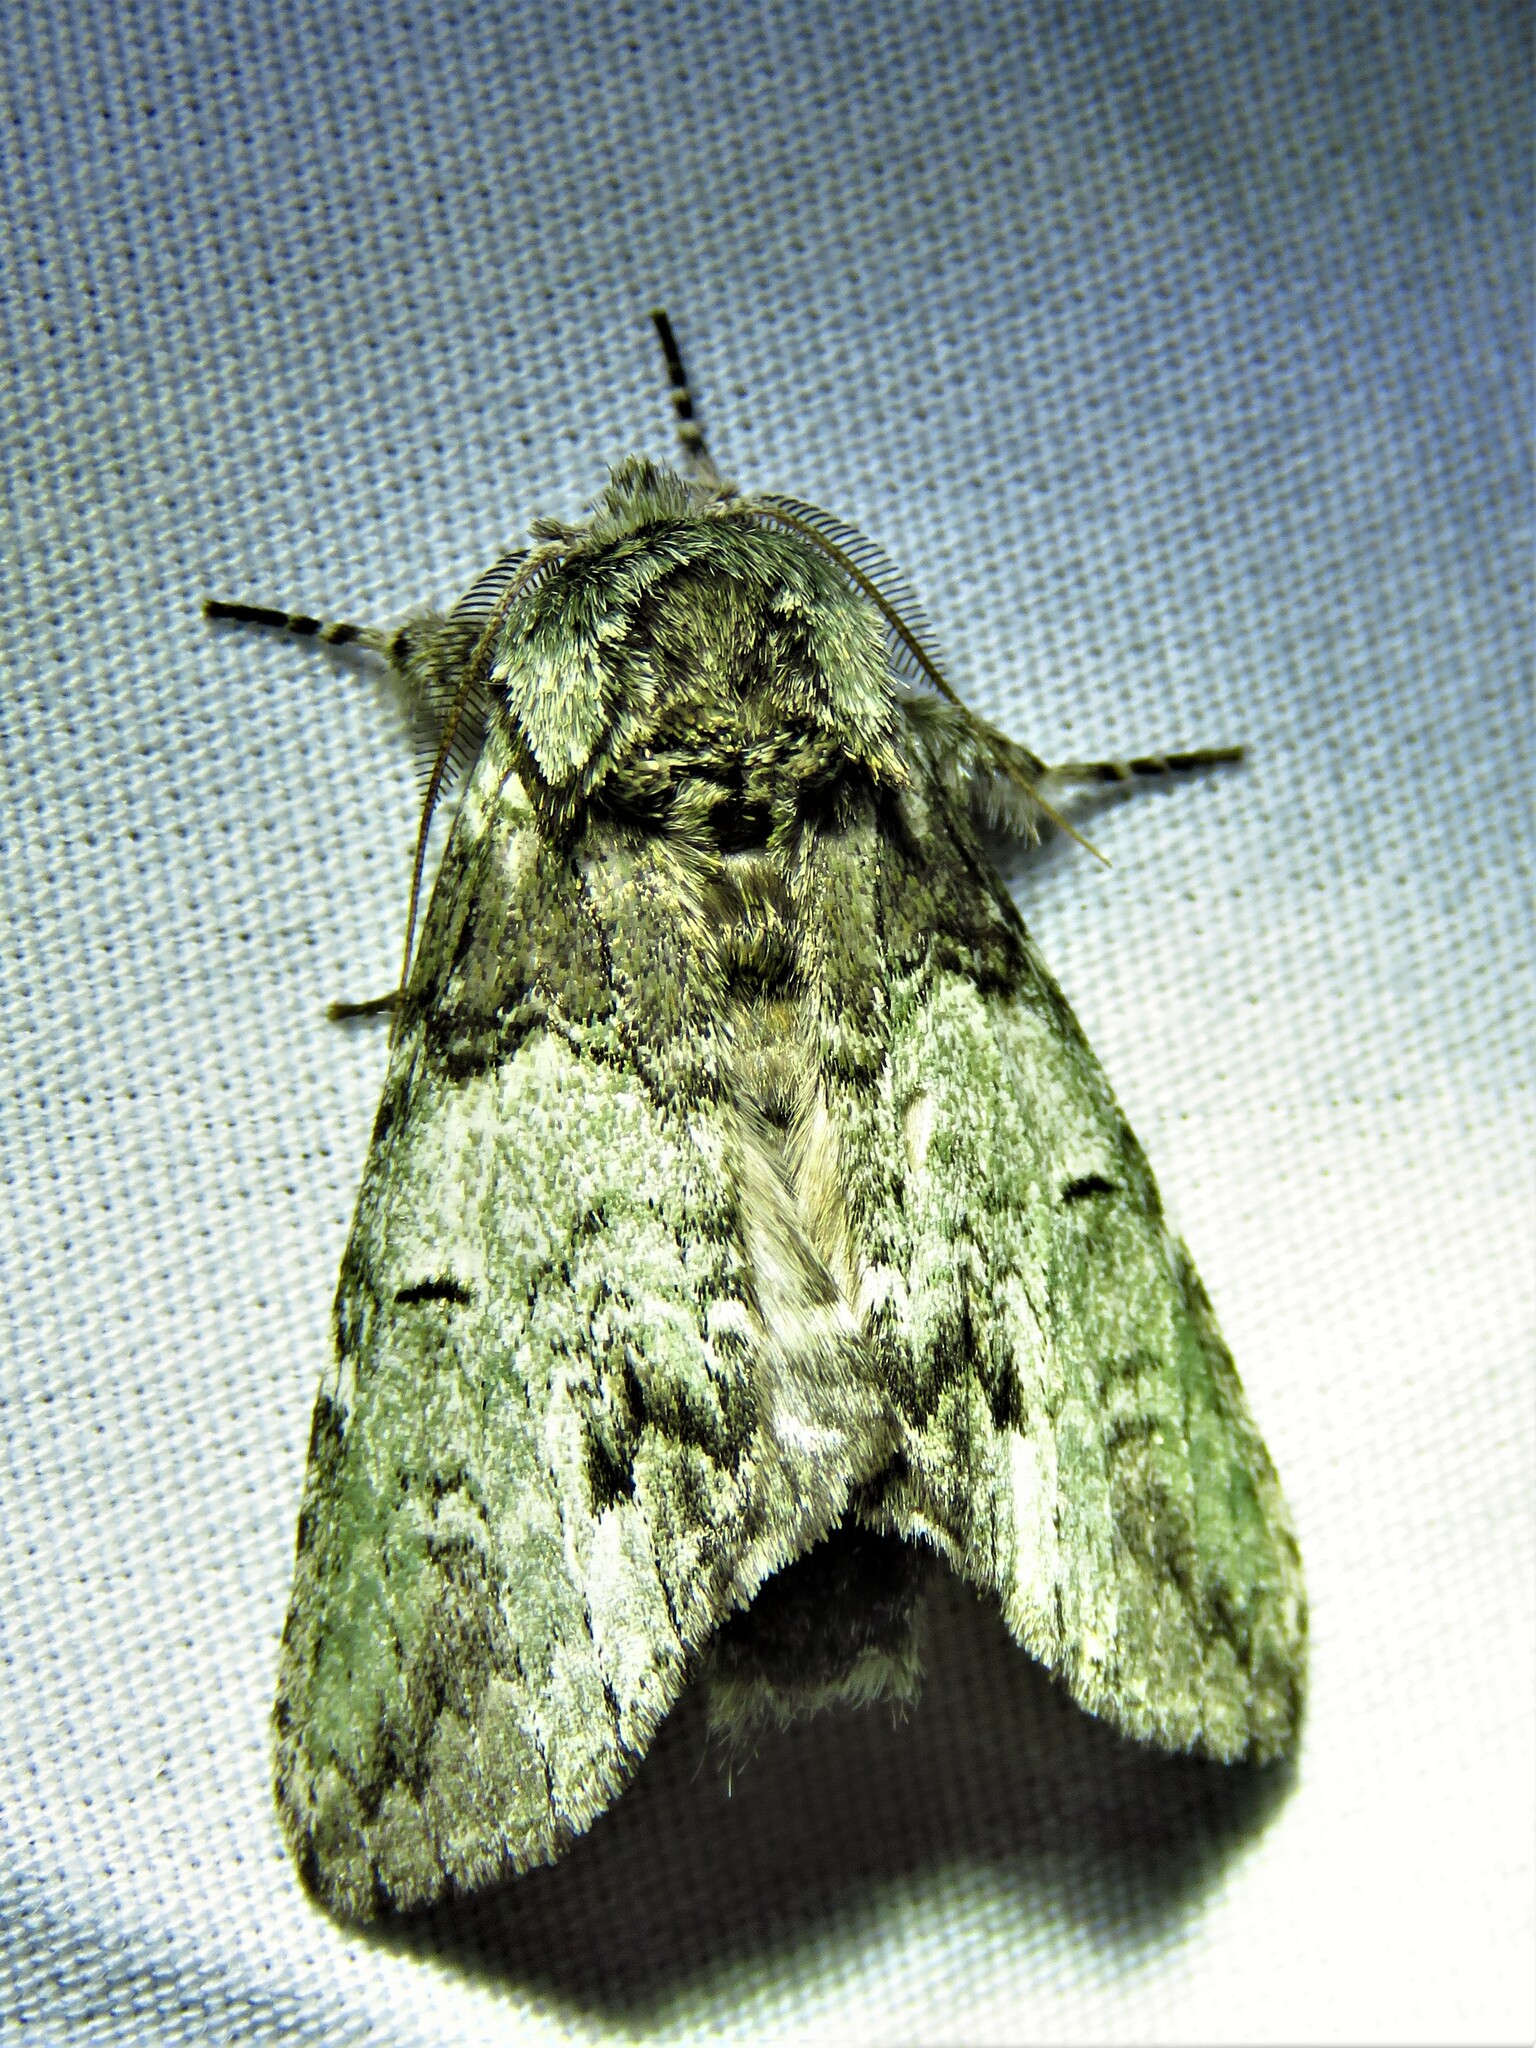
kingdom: Animalia
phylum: Arthropoda
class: Insecta
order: Lepidoptera
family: Notodontidae
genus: Macrurocampa
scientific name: Macrurocampa marthesia
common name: Mottled prominent
